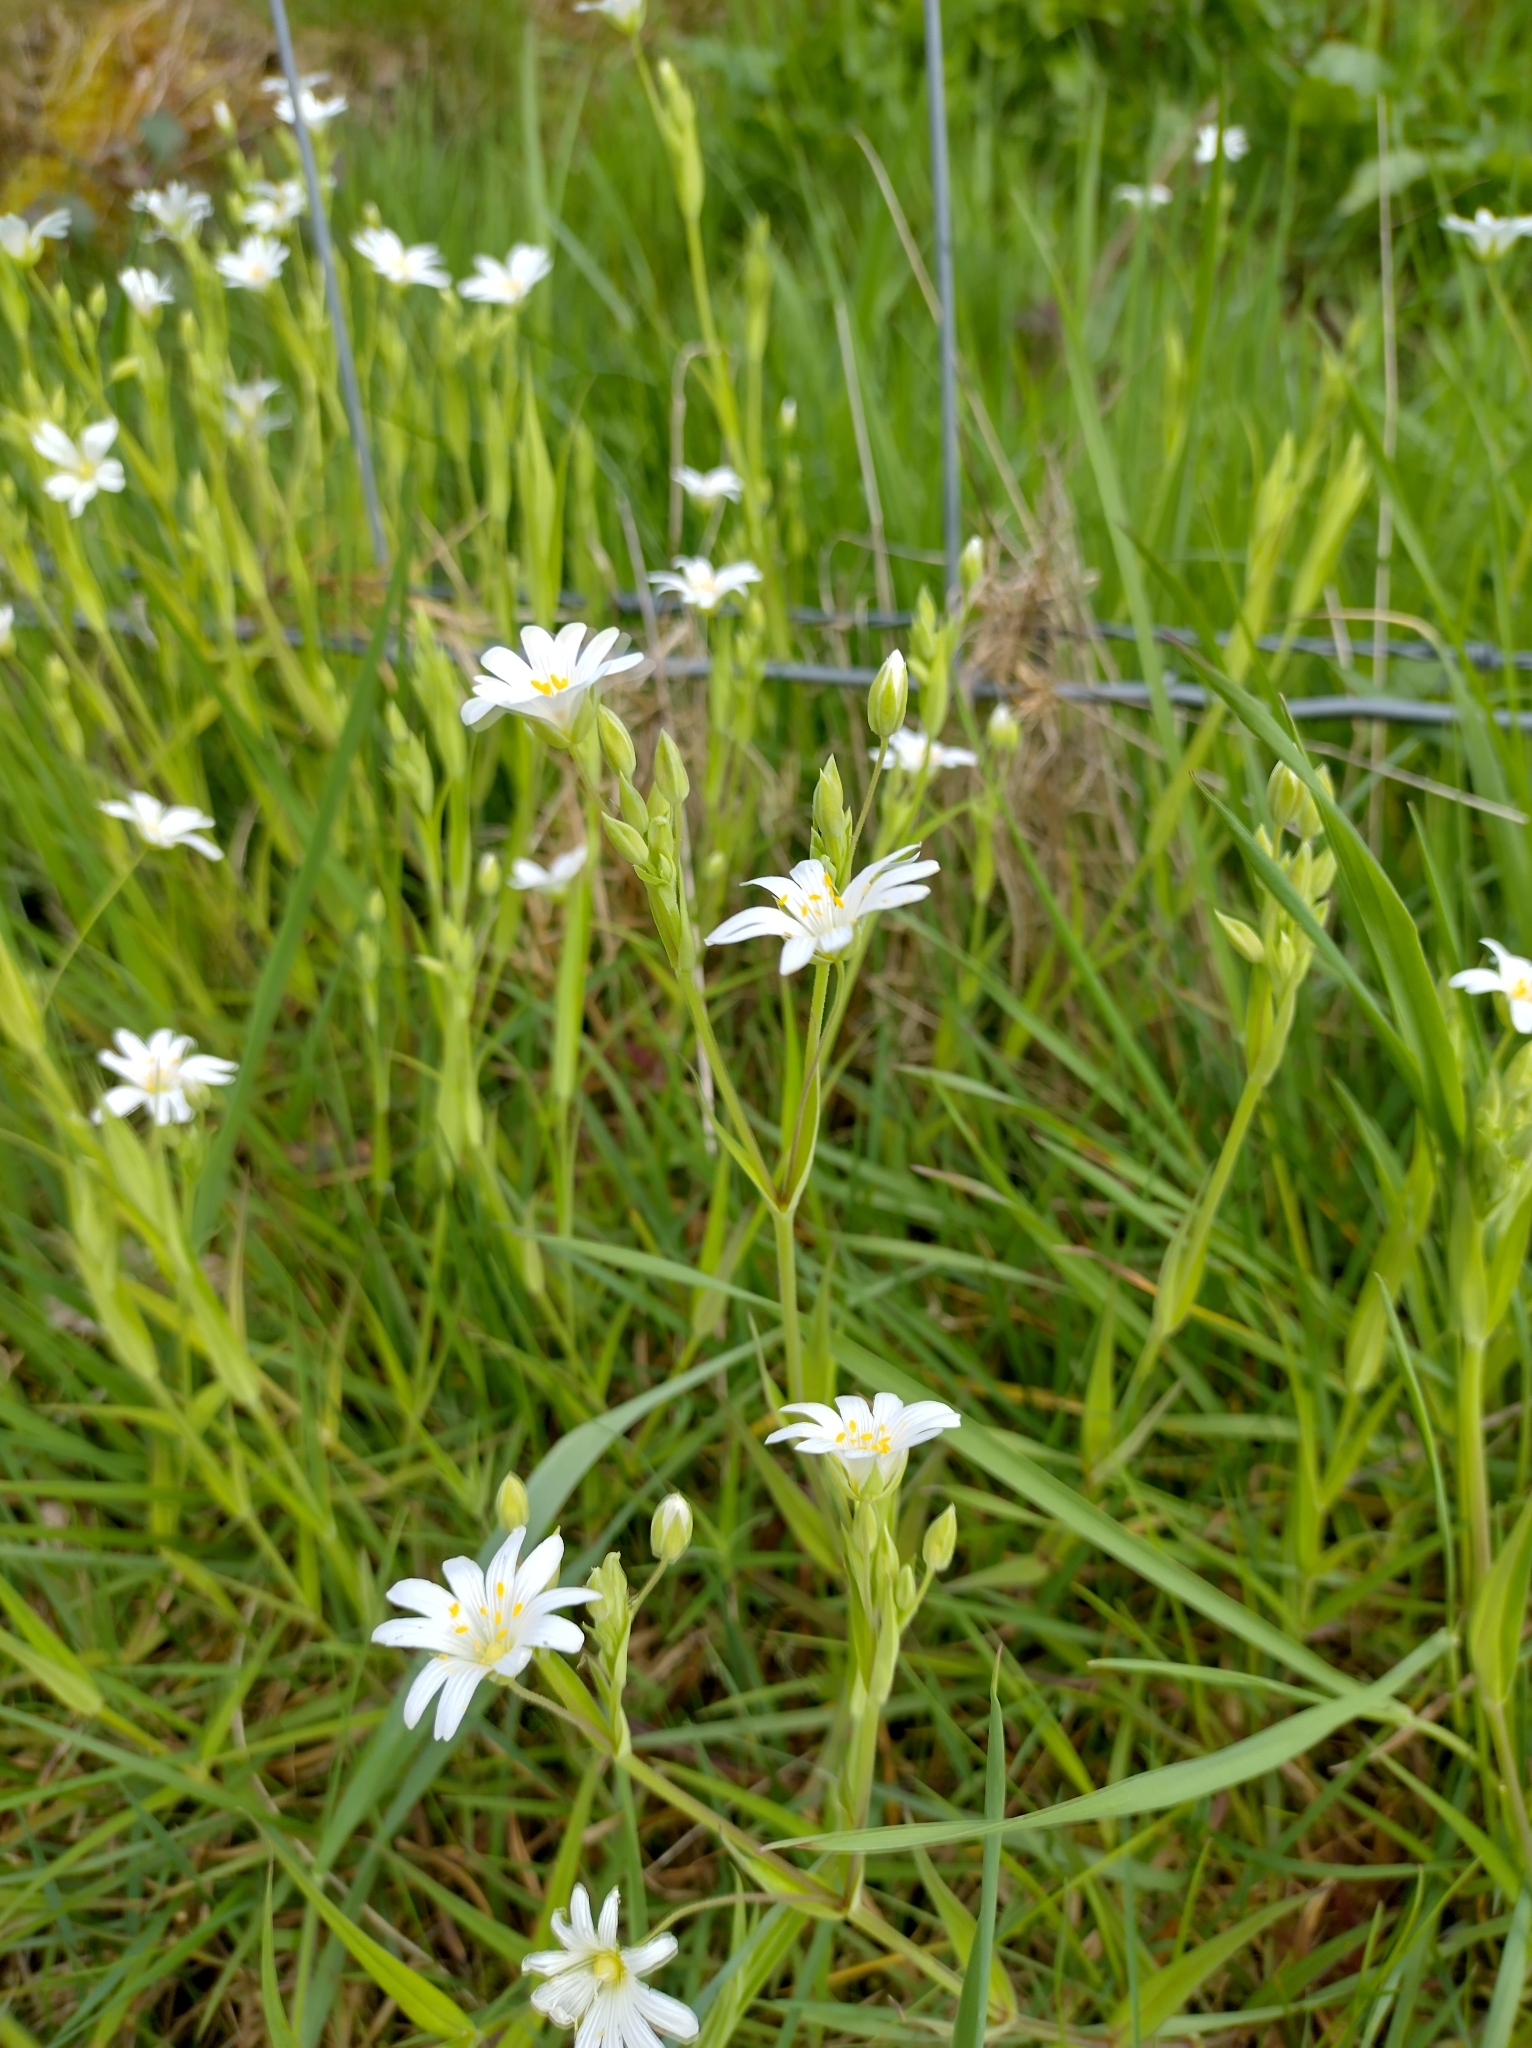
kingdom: Plantae
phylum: Tracheophyta
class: Magnoliopsida
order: Caryophyllales
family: Caryophyllaceae
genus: Rabelera
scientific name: Rabelera holostea
